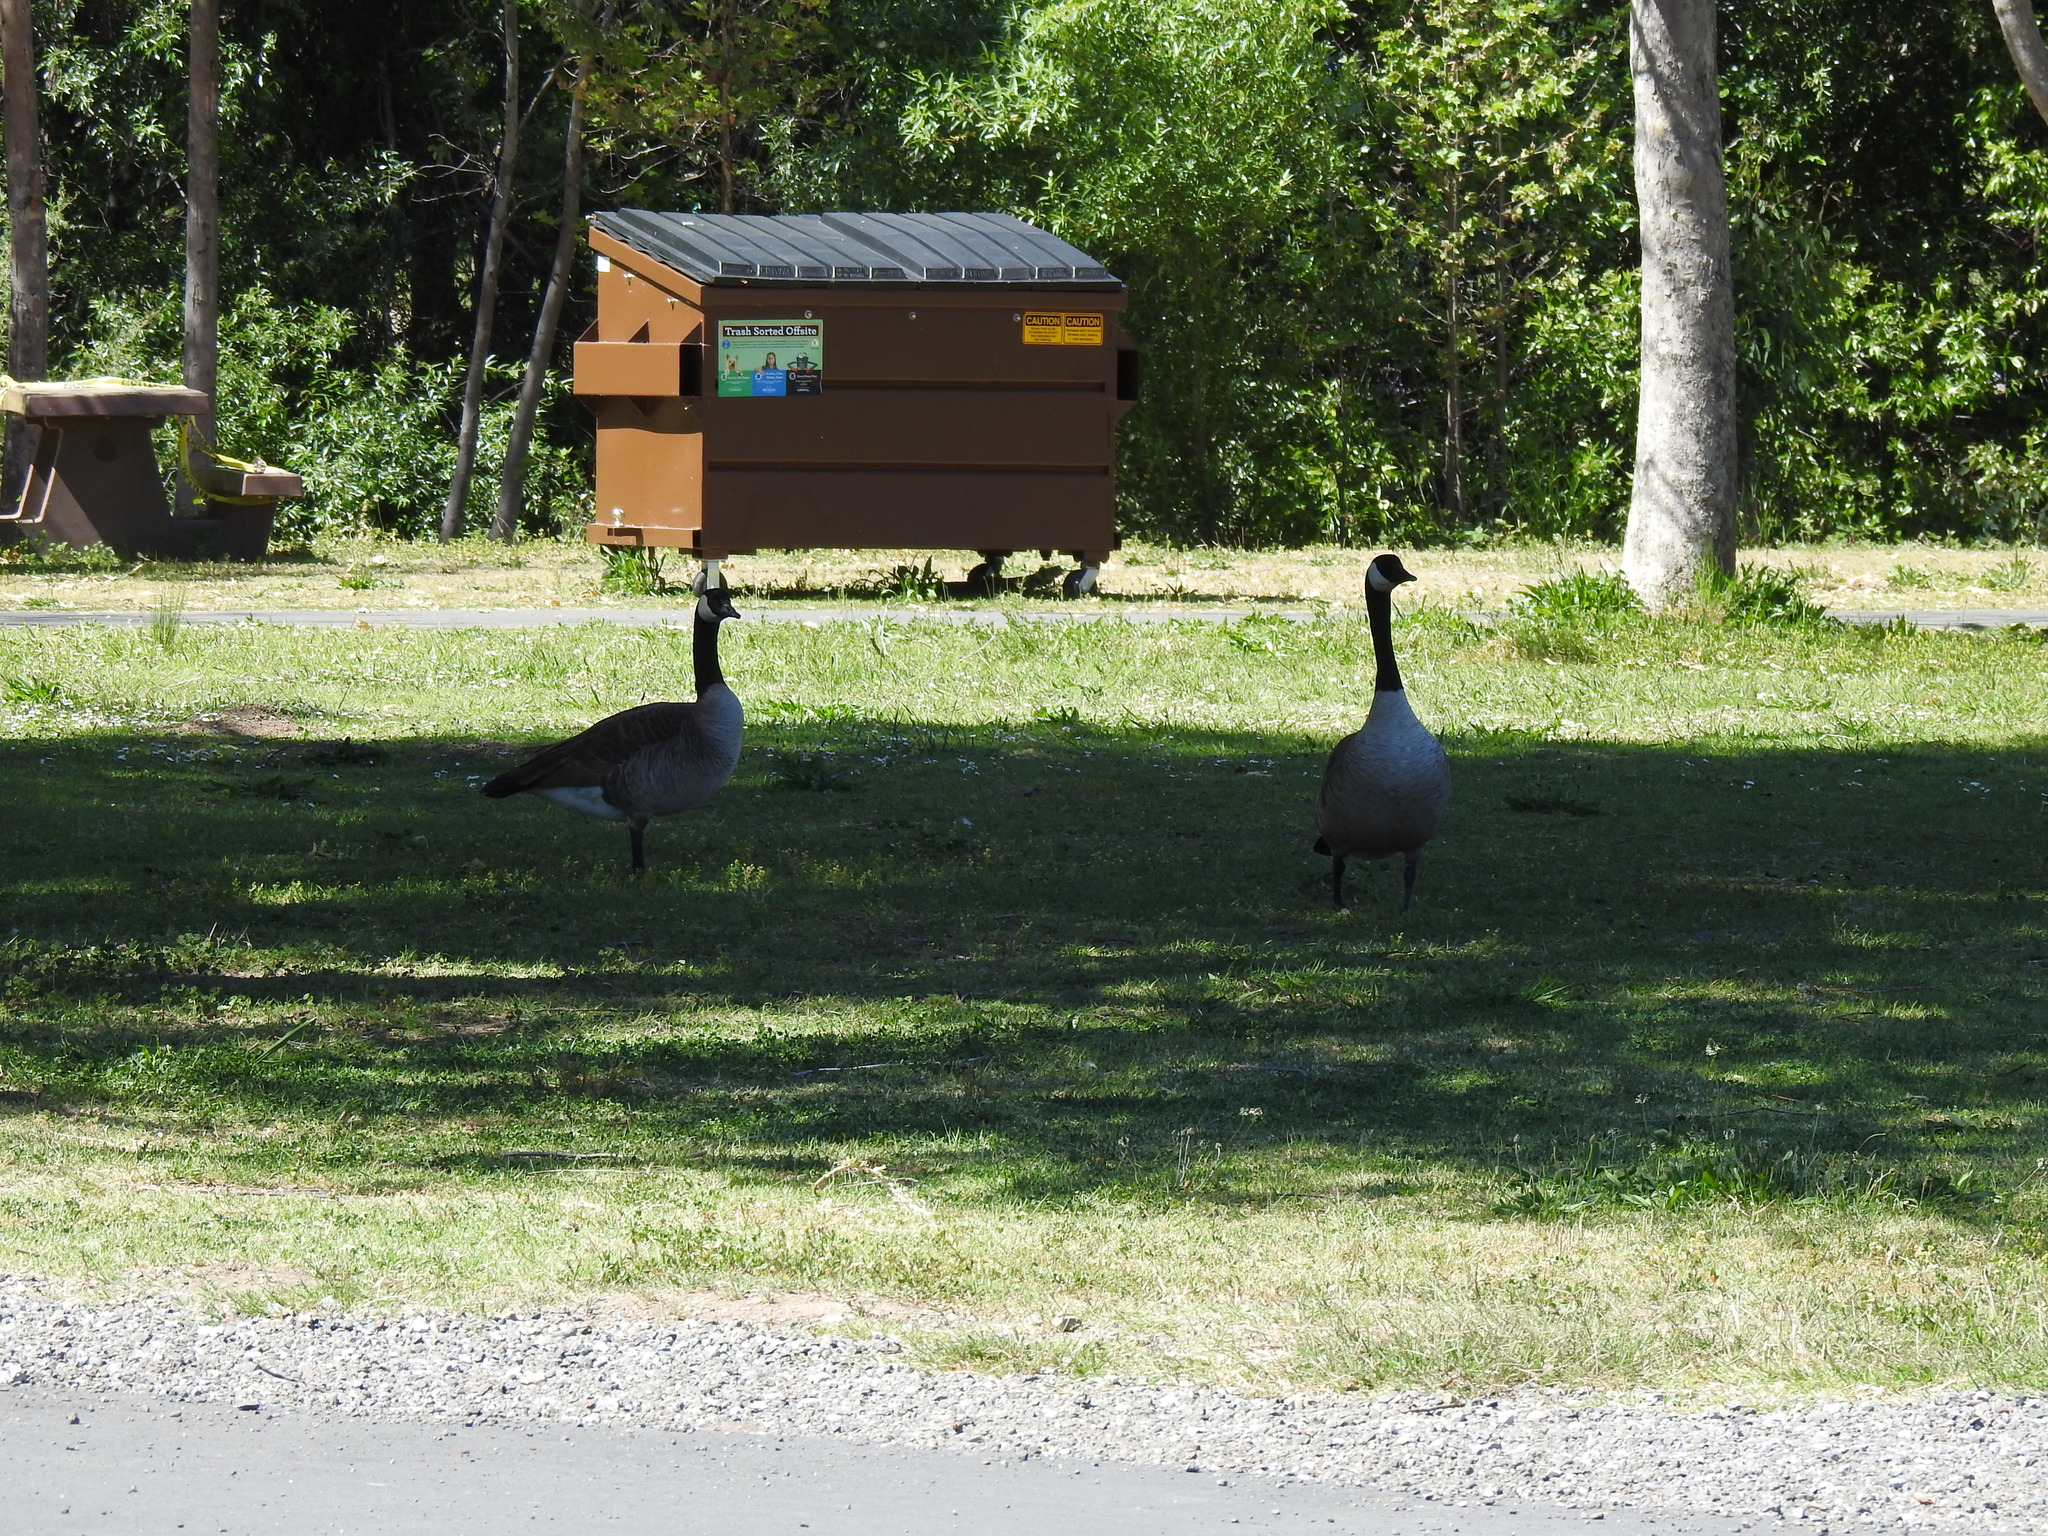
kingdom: Animalia
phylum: Chordata
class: Aves
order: Anseriformes
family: Anatidae
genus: Branta
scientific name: Branta canadensis
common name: Canada goose
